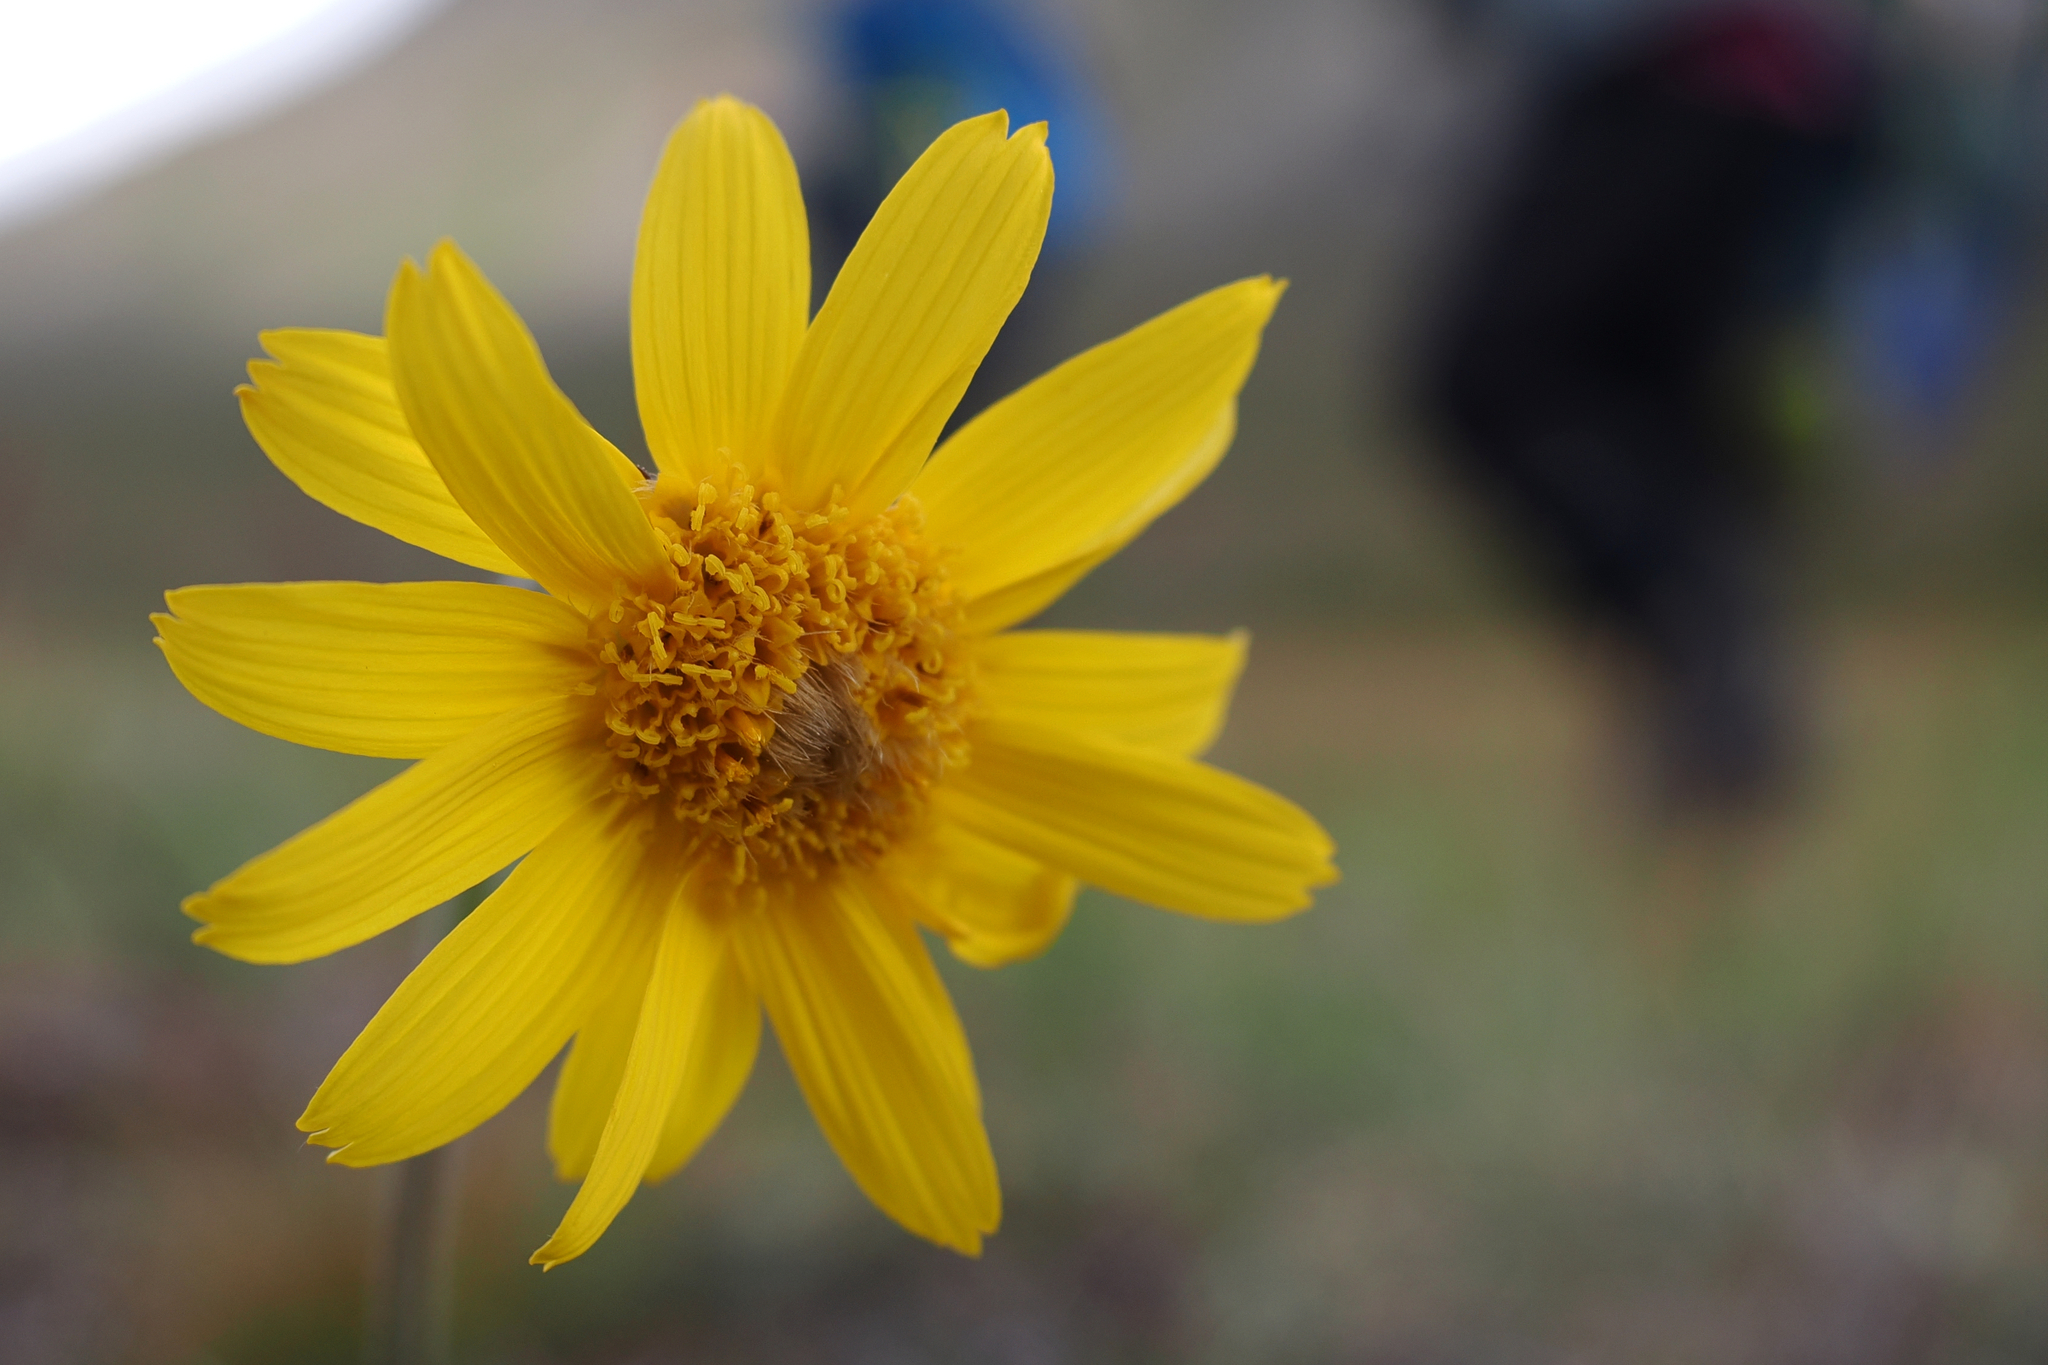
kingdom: Plantae
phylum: Tracheophyta
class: Magnoliopsida
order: Asterales
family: Asteraceae
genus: Arnica
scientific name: Arnica angustifolia
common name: Arctic arnica
